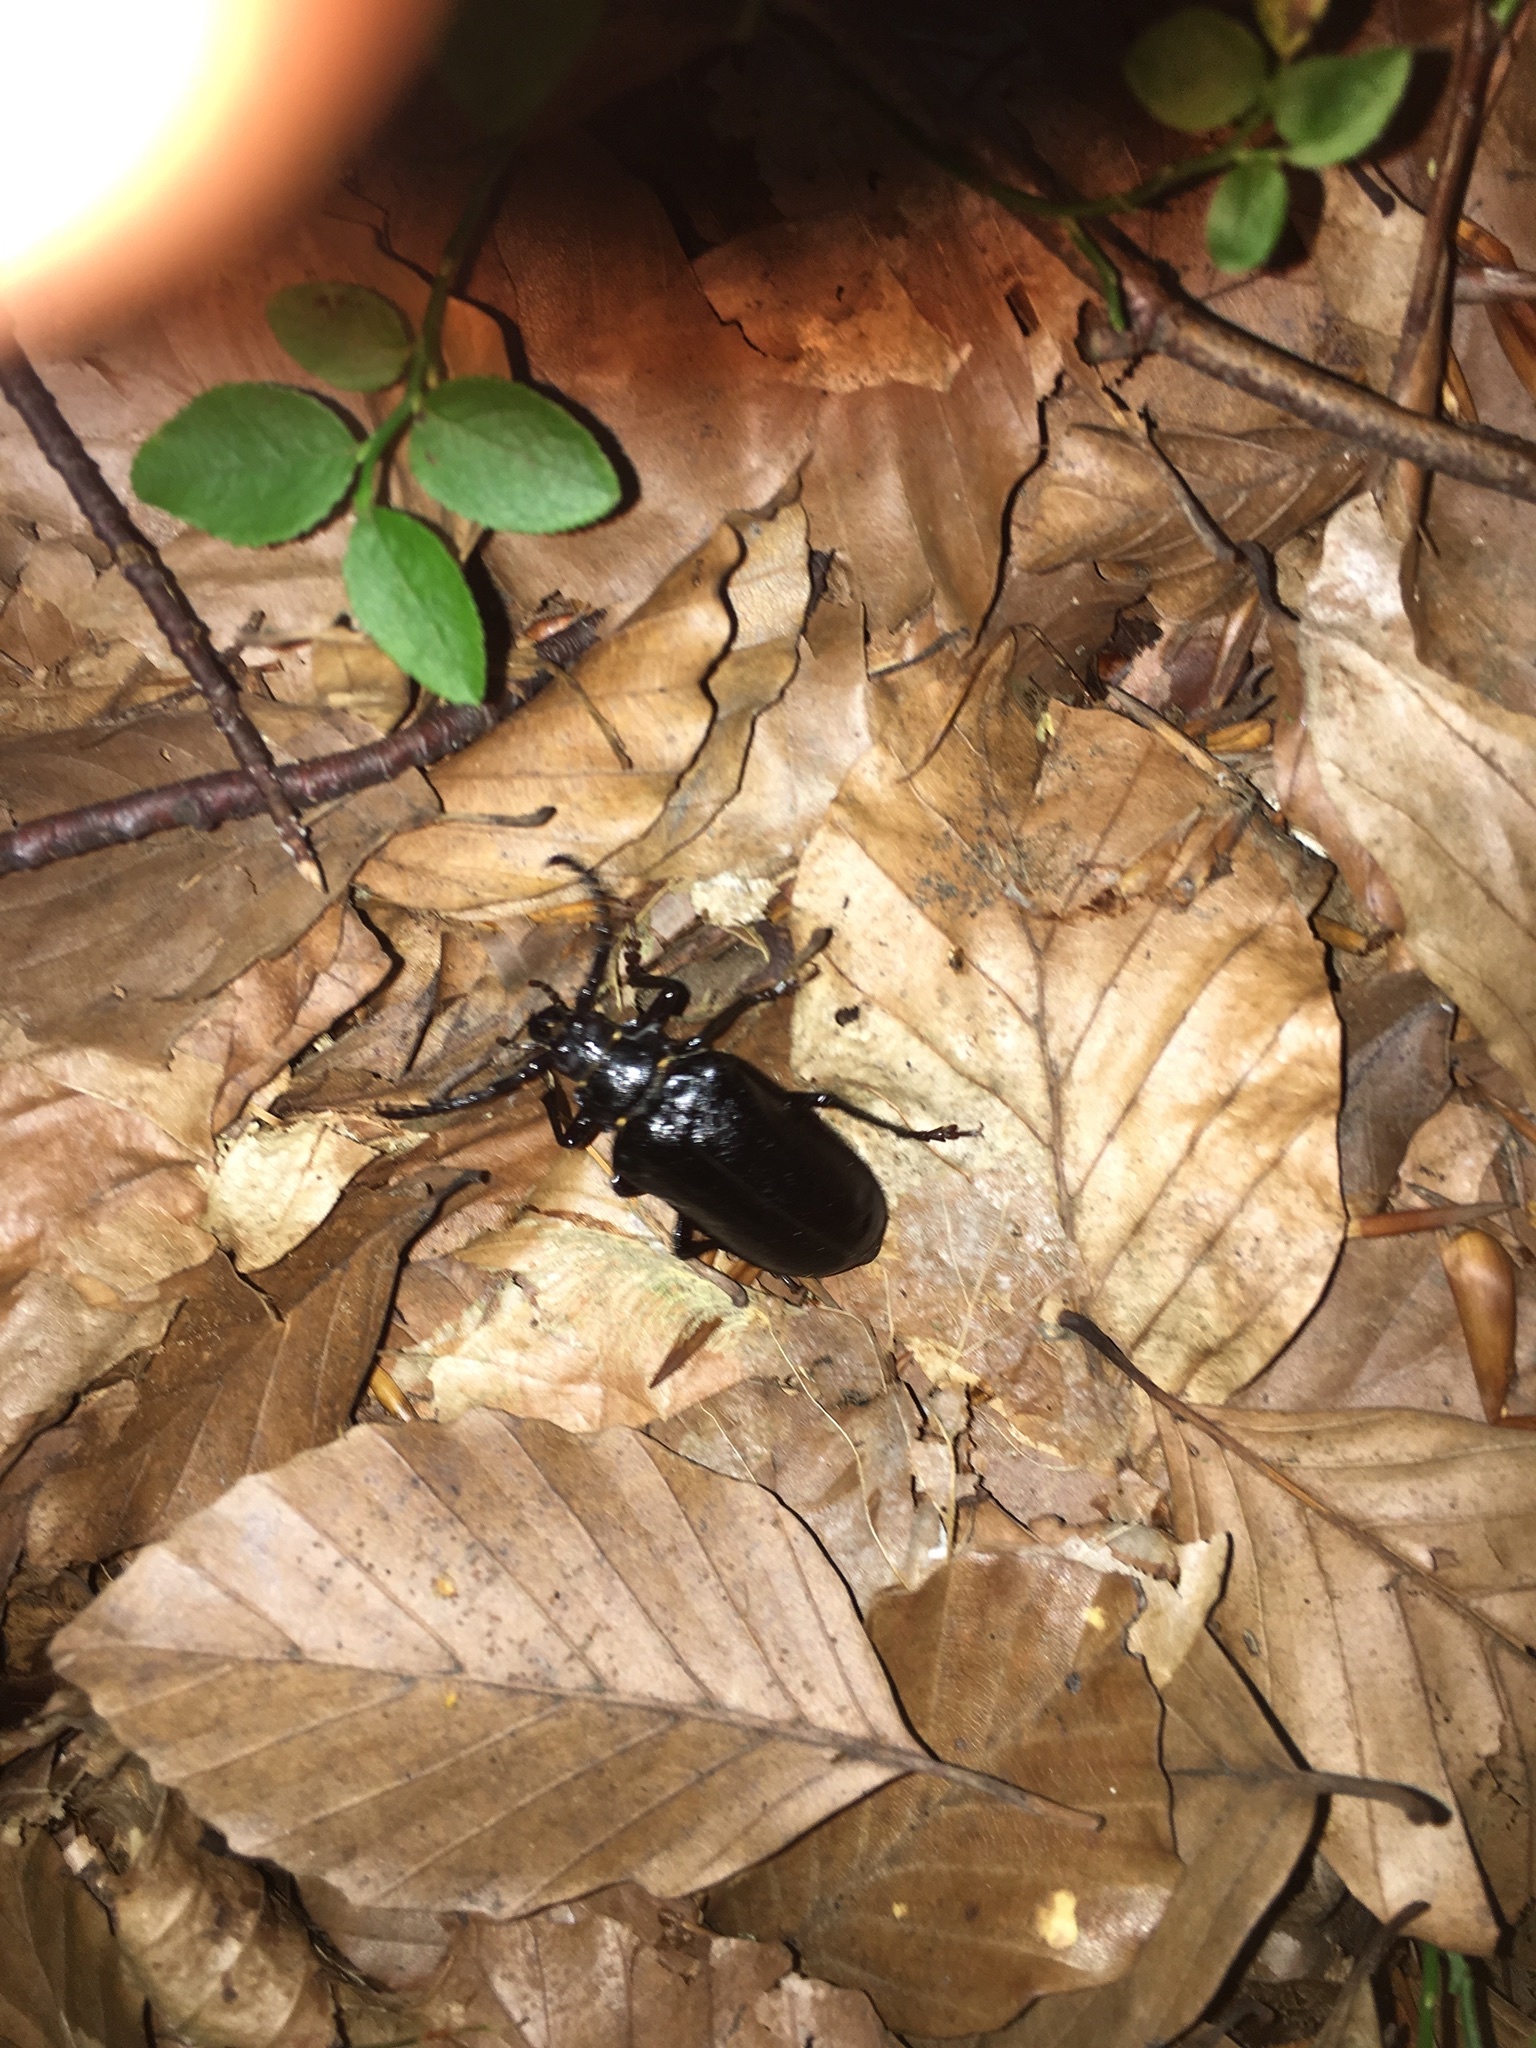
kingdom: Animalia
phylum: Arthropoda
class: Insecta
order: Coleoptera
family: Cerambycidae
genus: Prionus
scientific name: Prionus coriarius
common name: Tanner beetle
